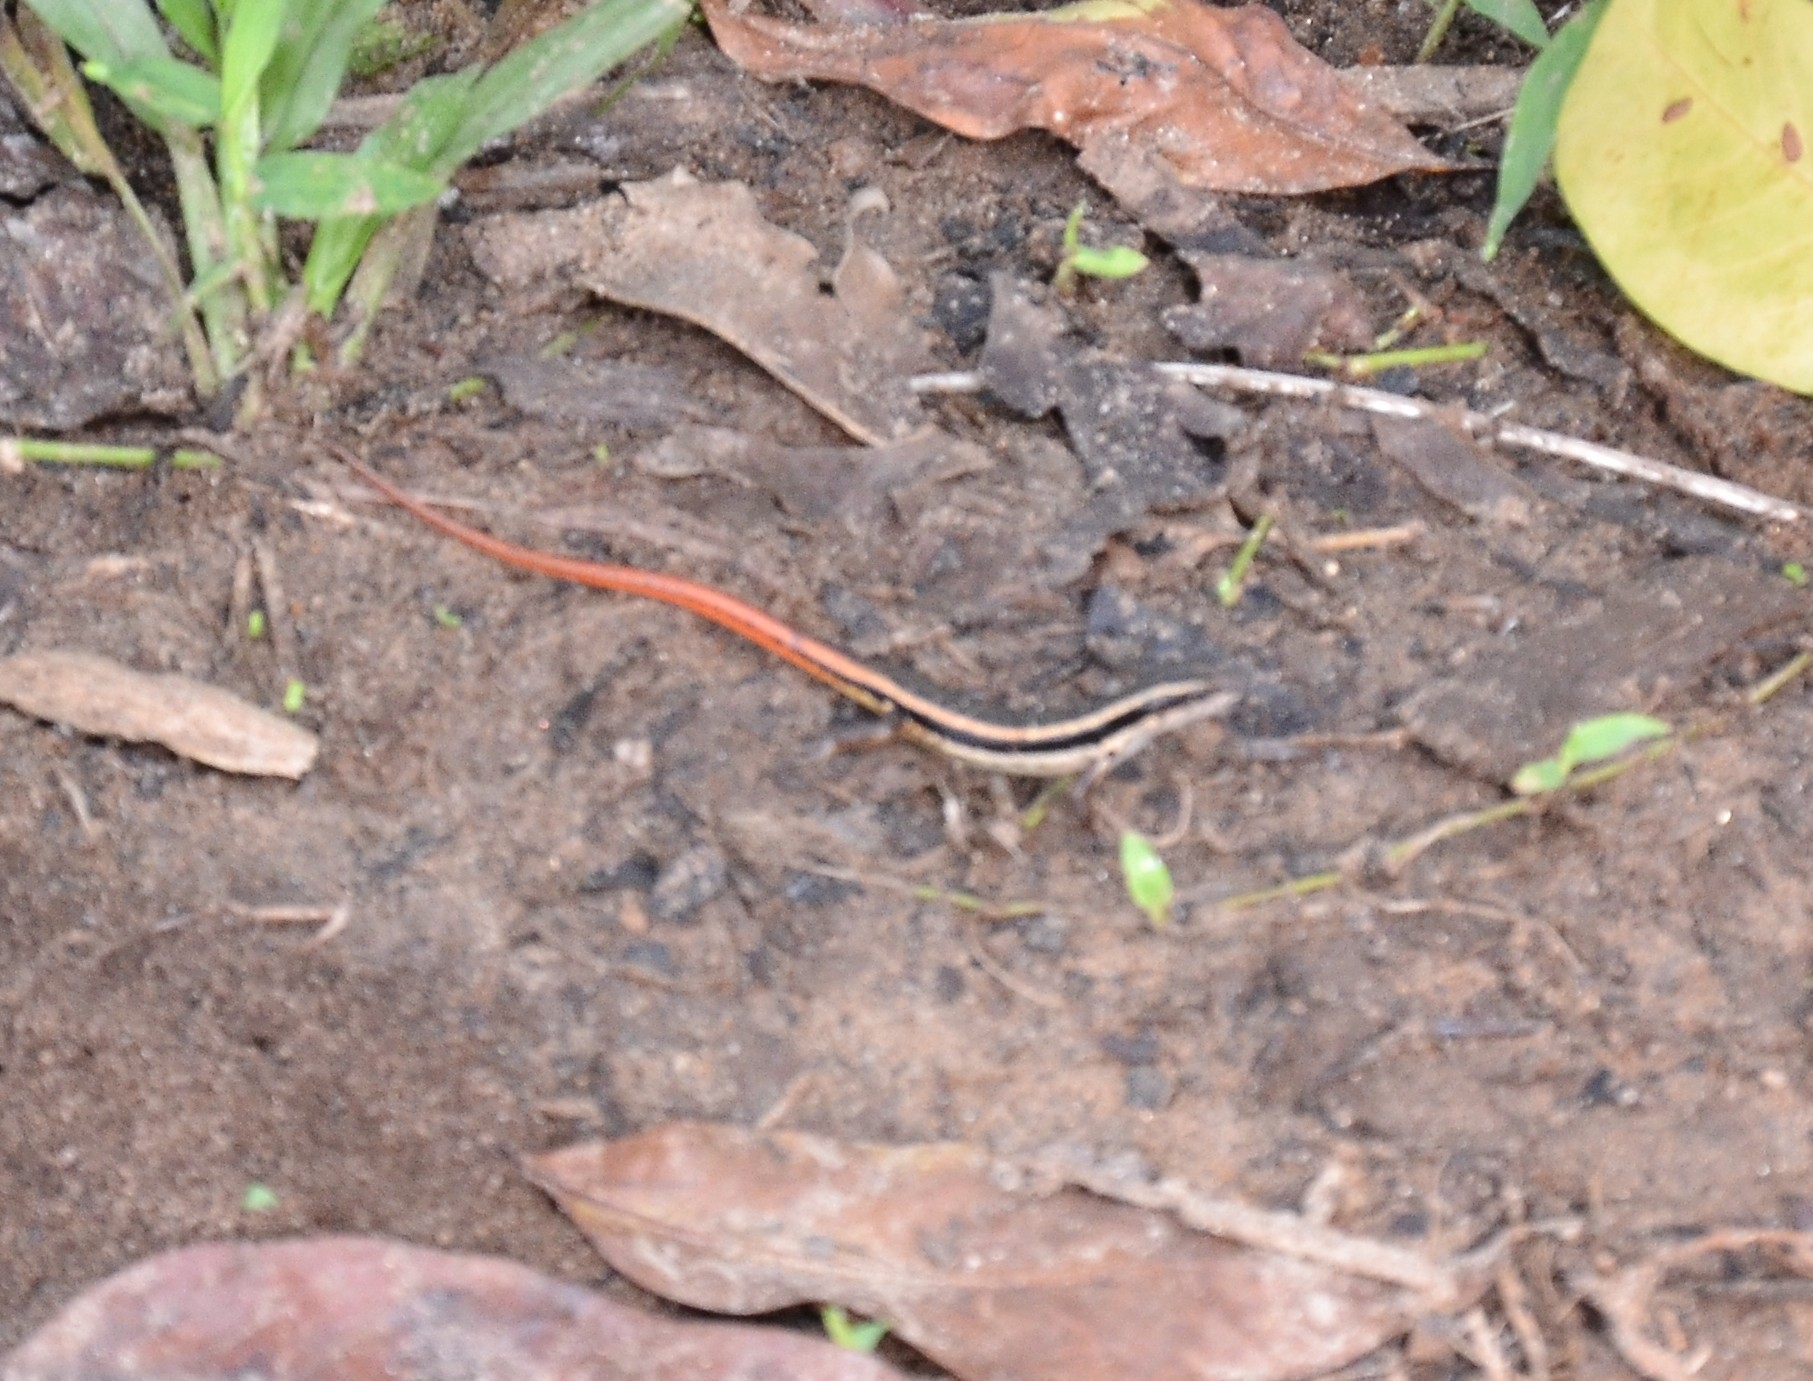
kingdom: Animalia
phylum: Chordata
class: Squamata
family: Scincidae
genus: Sphenomorphus
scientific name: Sphenomorphus dussumieri
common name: Dussumier's forest skink
